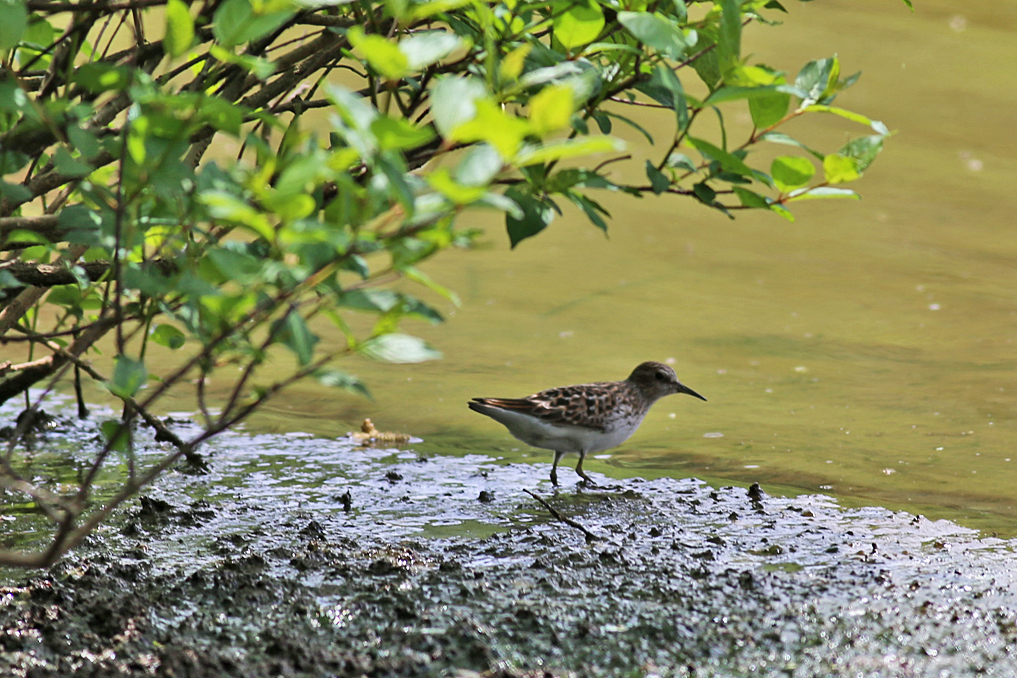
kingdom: Animalia
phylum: Chordata
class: Aves
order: Charadriiformes
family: Scolopacidae
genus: Calidris
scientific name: Calidris minutilla
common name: Least sandpiper
